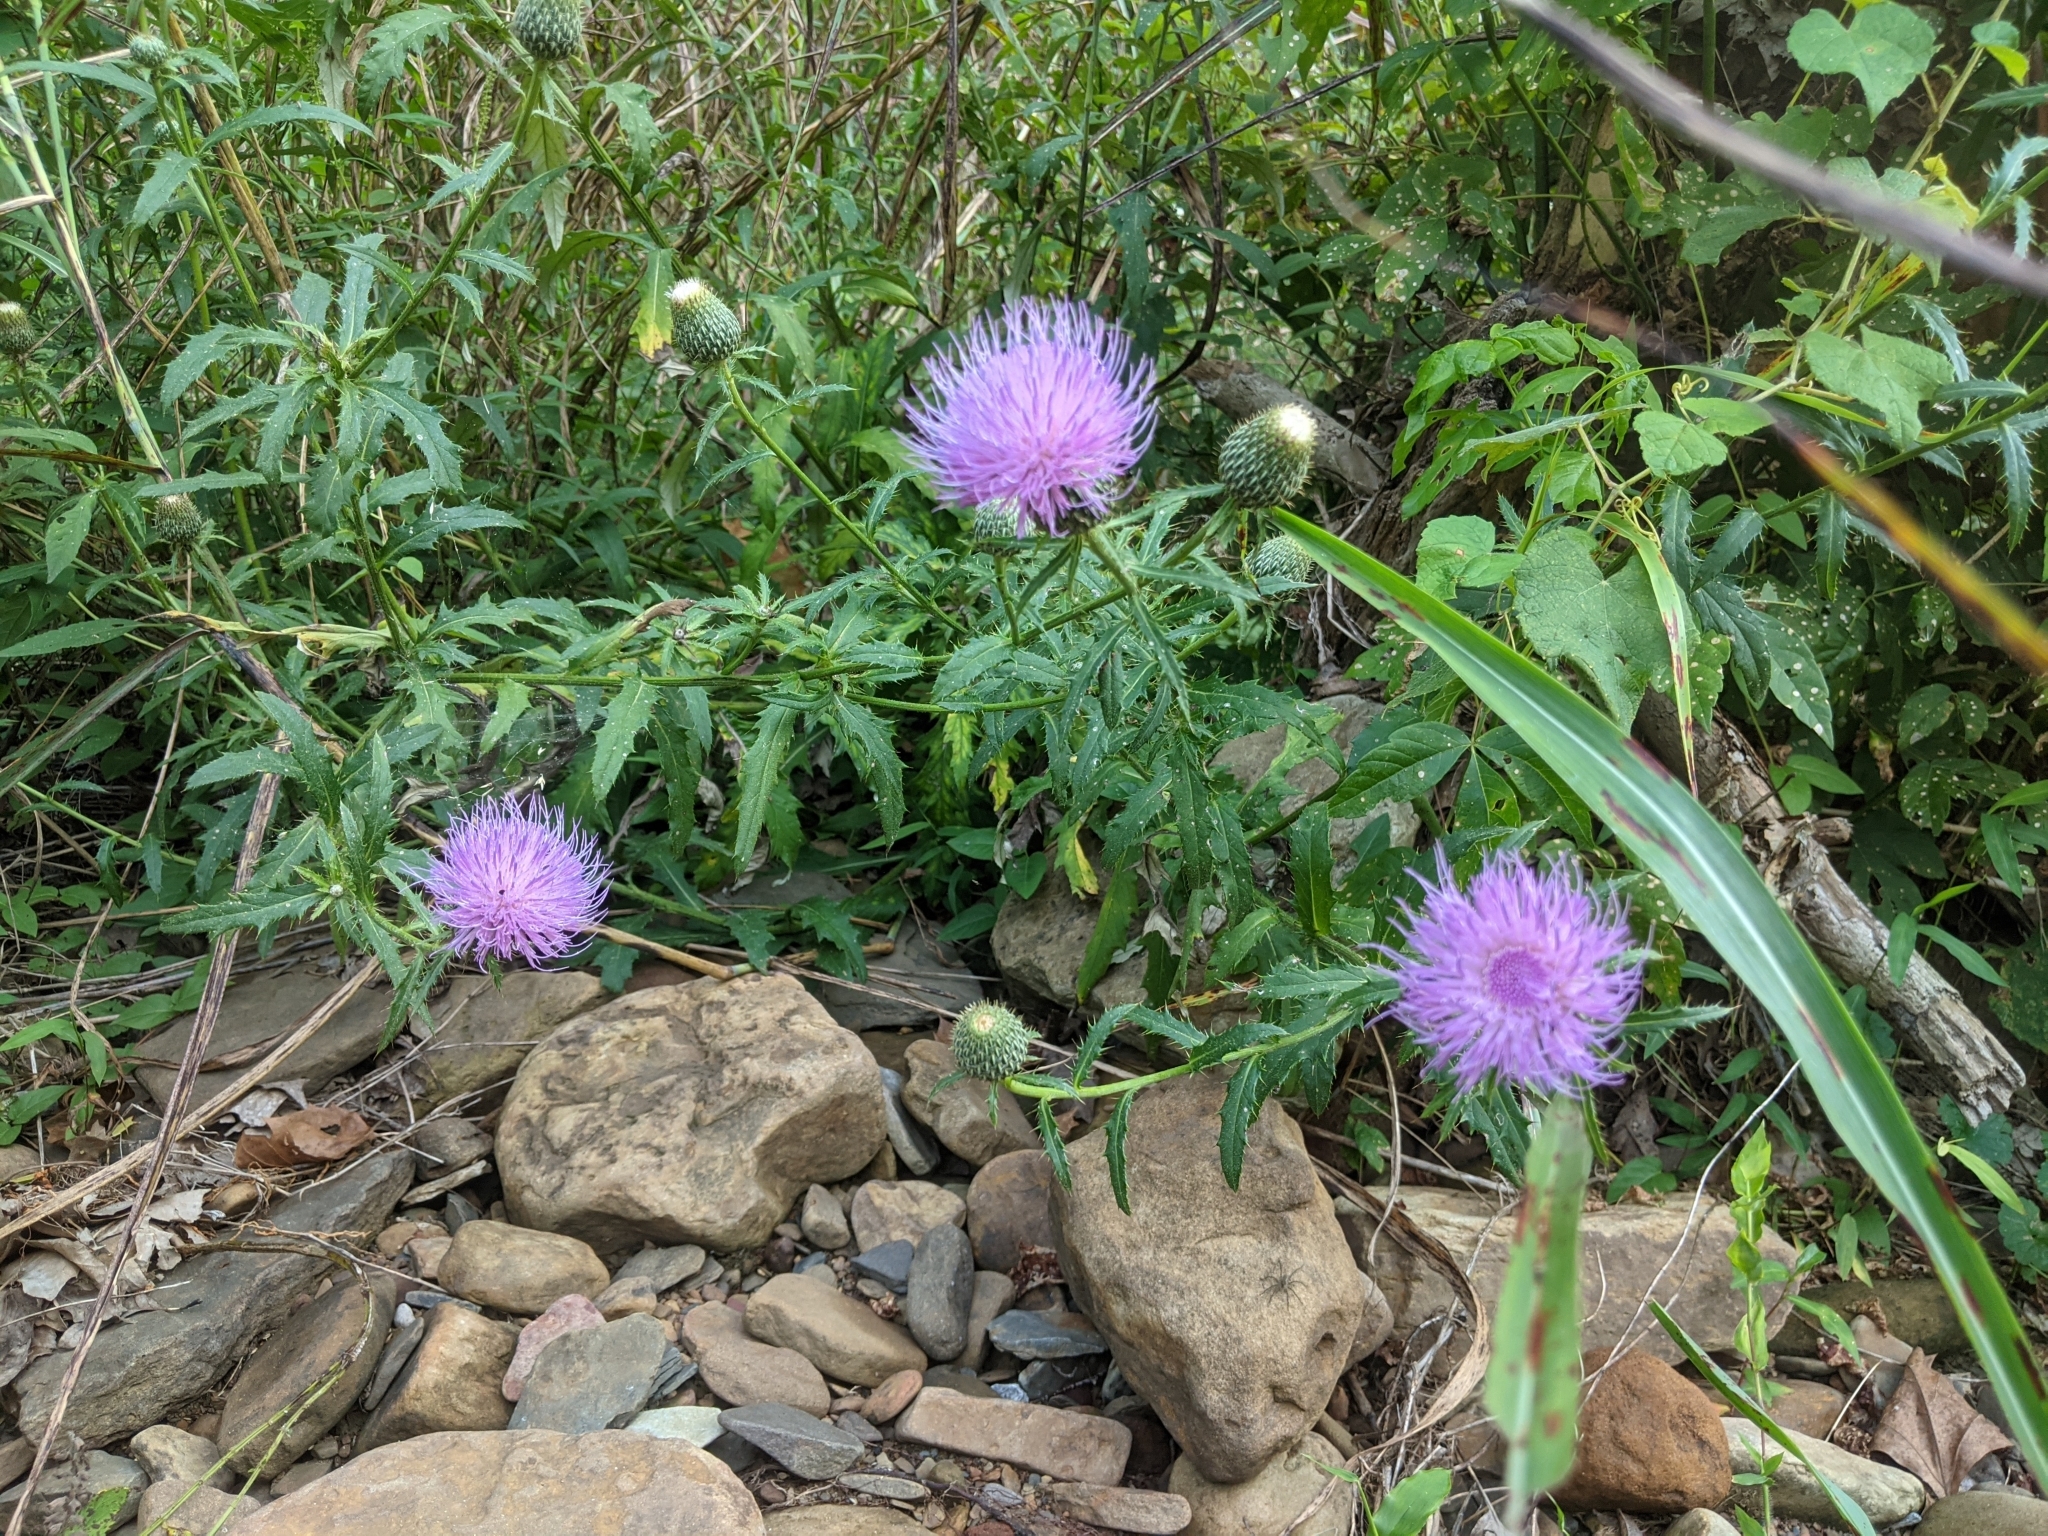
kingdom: Plantae
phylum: Tracheophyta
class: Magnoliopsida
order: Asterales
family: Asteraceae
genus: Cirsium
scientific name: Cirsium altissimum
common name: Roadside thistle
